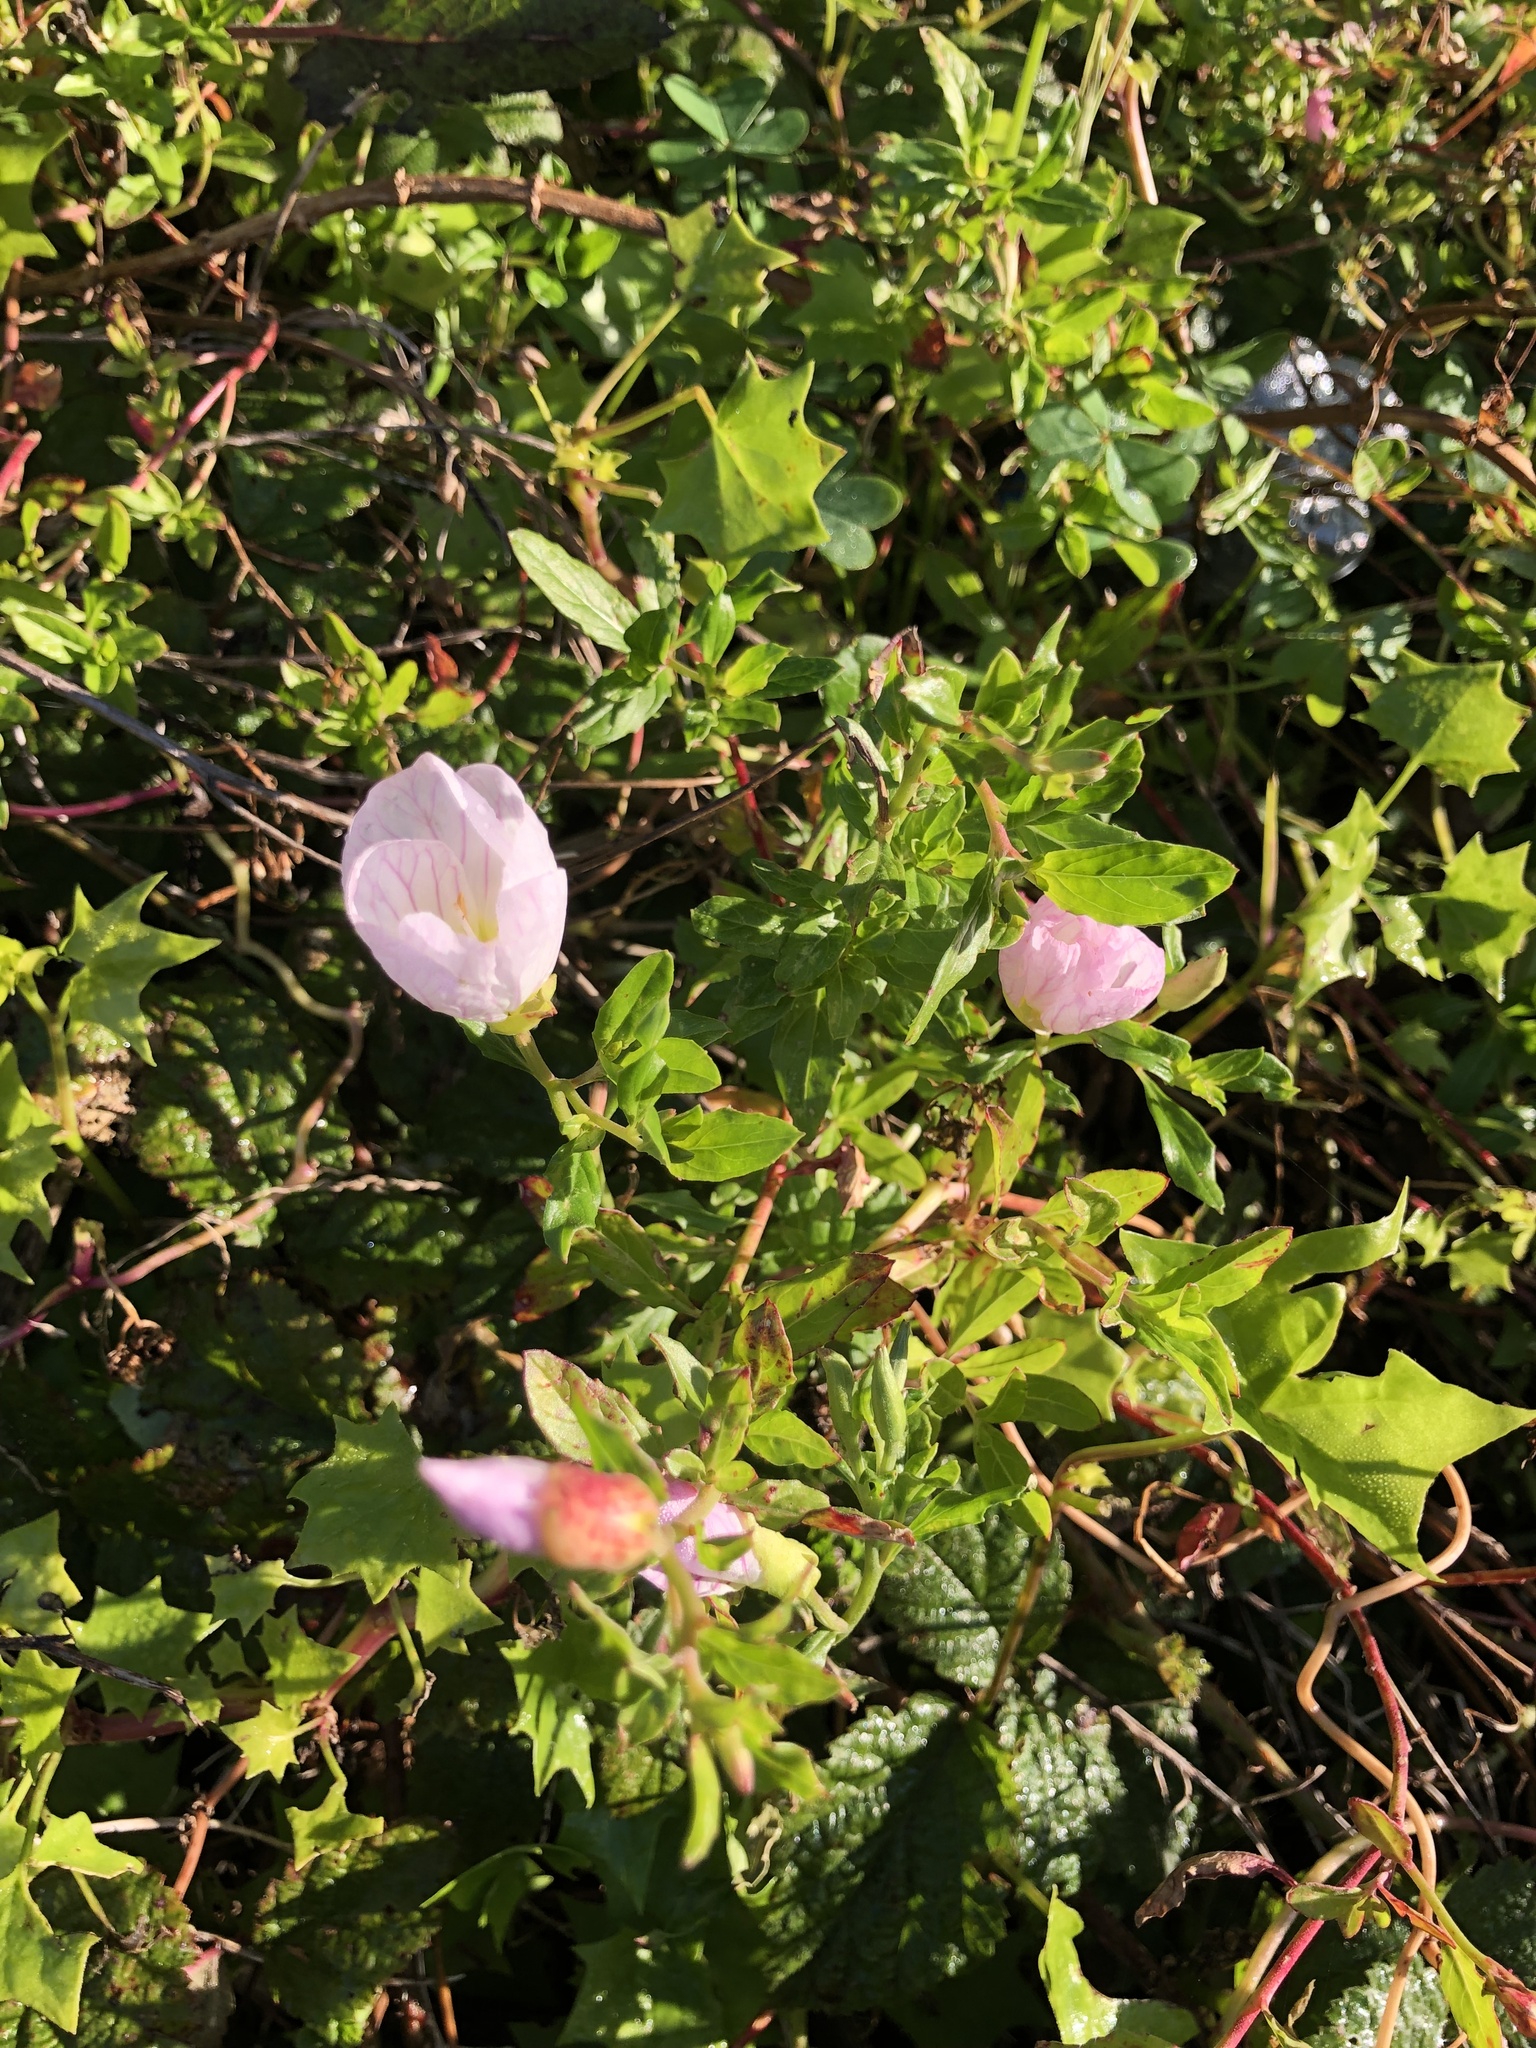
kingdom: Plantae
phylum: Tracheophyta
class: Magnoliopsida
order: Myrtales
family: Onagraceae
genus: Oenothera
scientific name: Oenothera speciosa
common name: White evening-primrose
